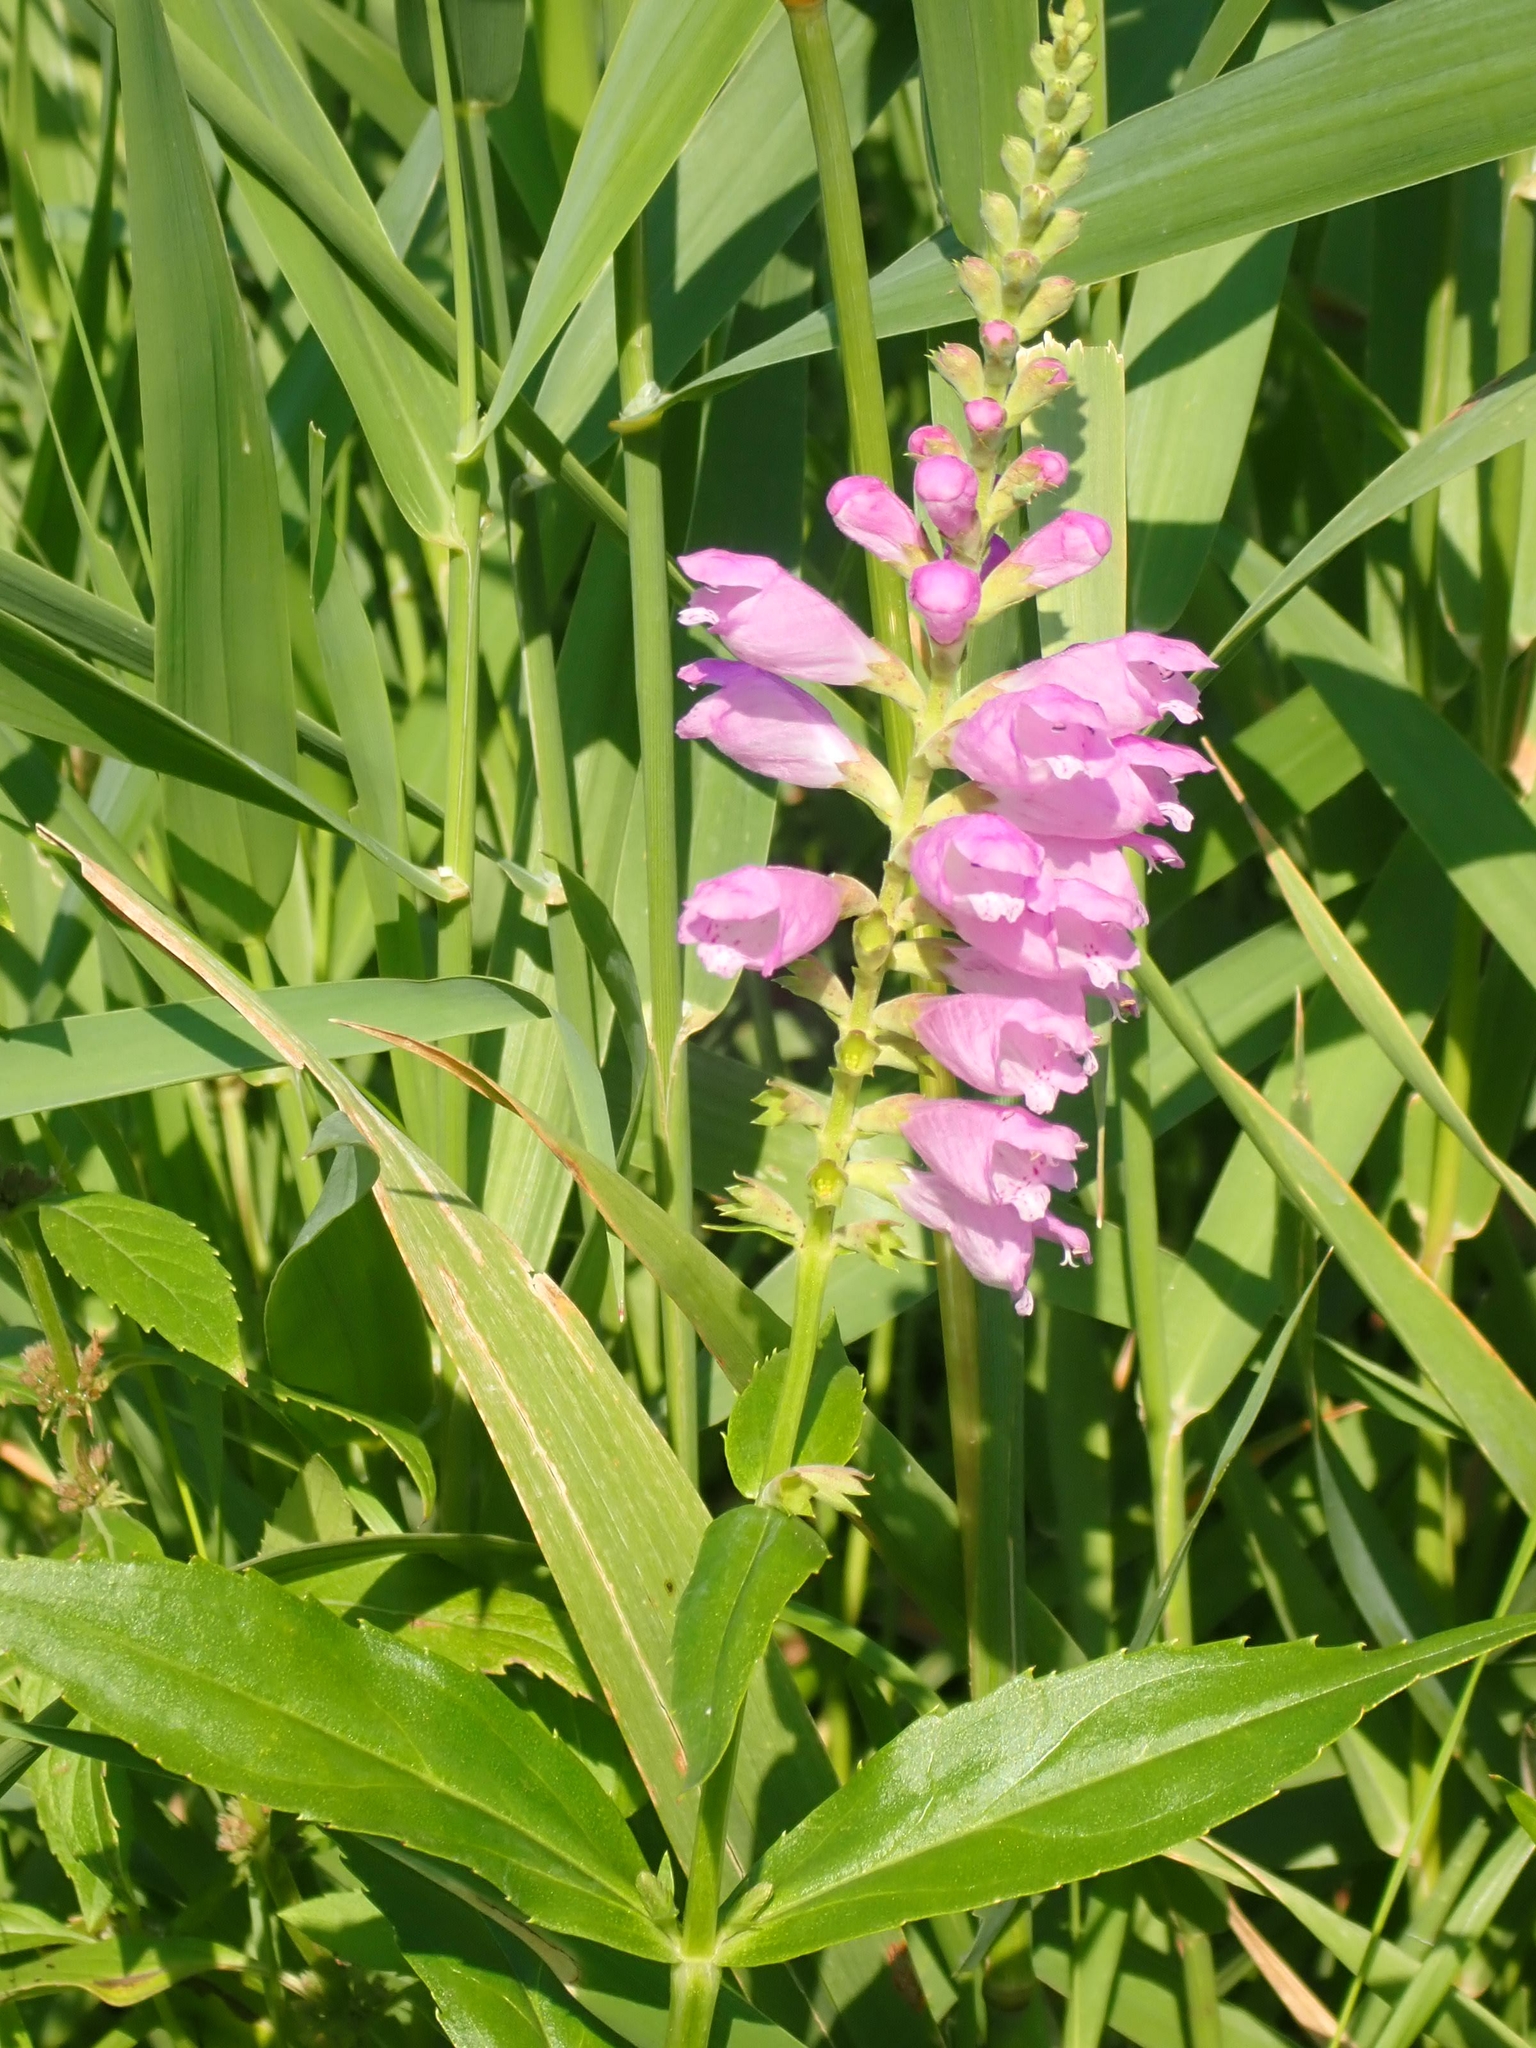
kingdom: Plantae
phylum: Tracheophyta
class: Magnoliopsida
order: Lamiales
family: Lamiaceae
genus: Physostegia
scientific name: Physostegia virginiana
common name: Obedient-plant
